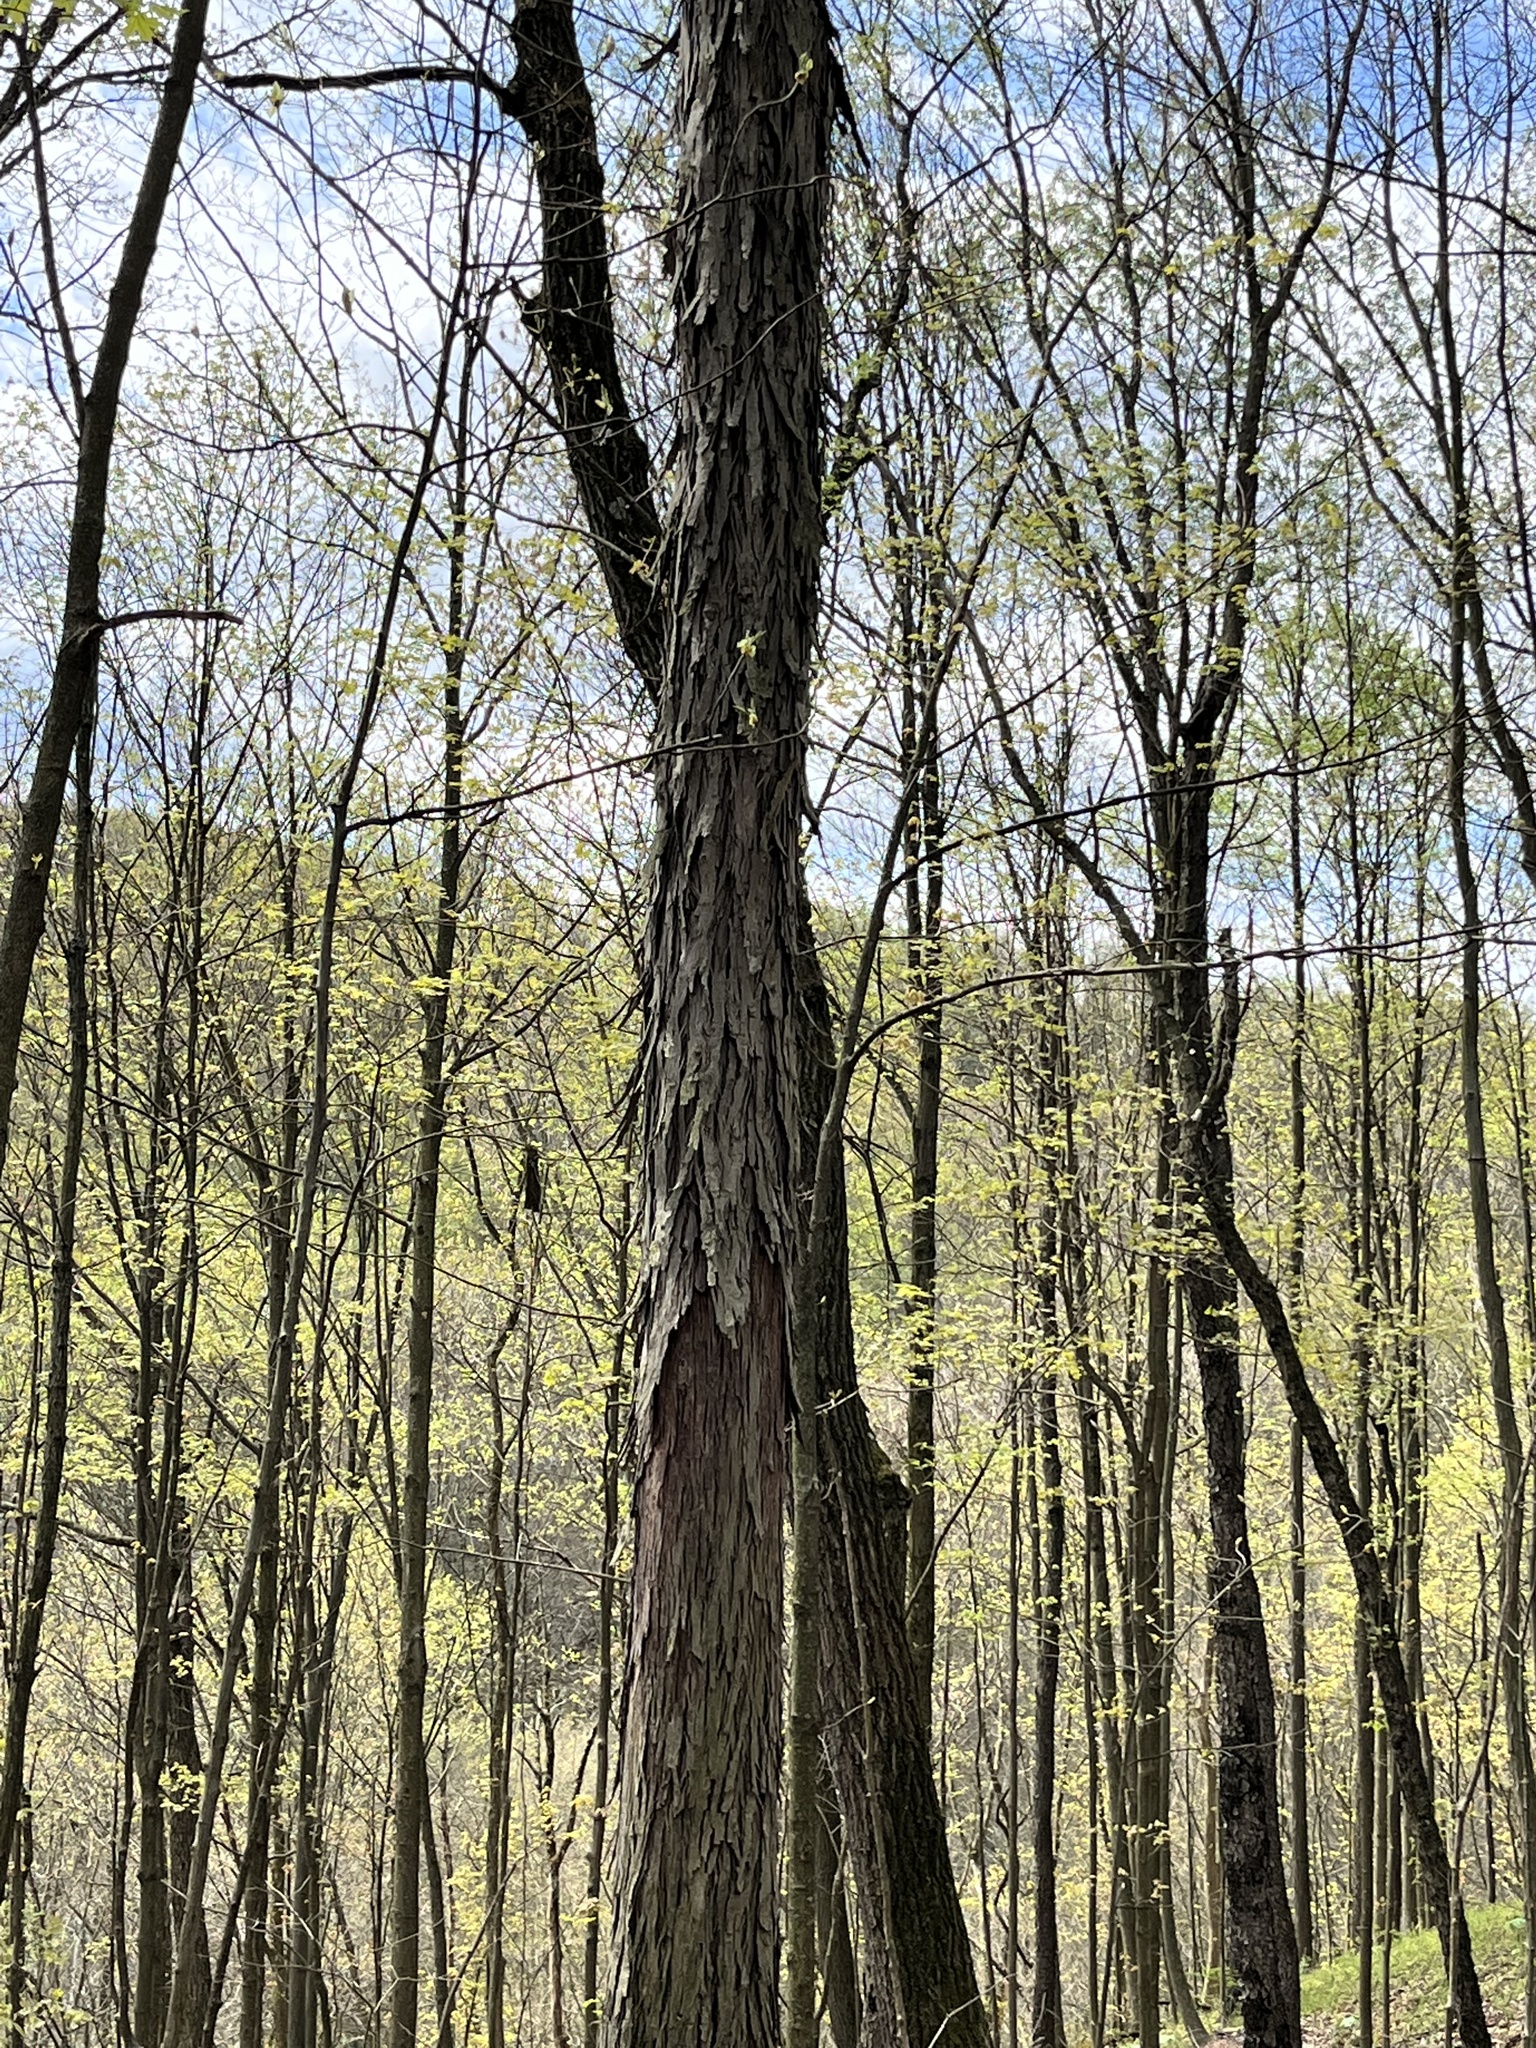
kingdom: Plantae
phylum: Tracheophyta
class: Magnoliopsida
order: Fagales
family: Juglandaceae
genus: Carya
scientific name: Carya ovata
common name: Shagbark hickory
